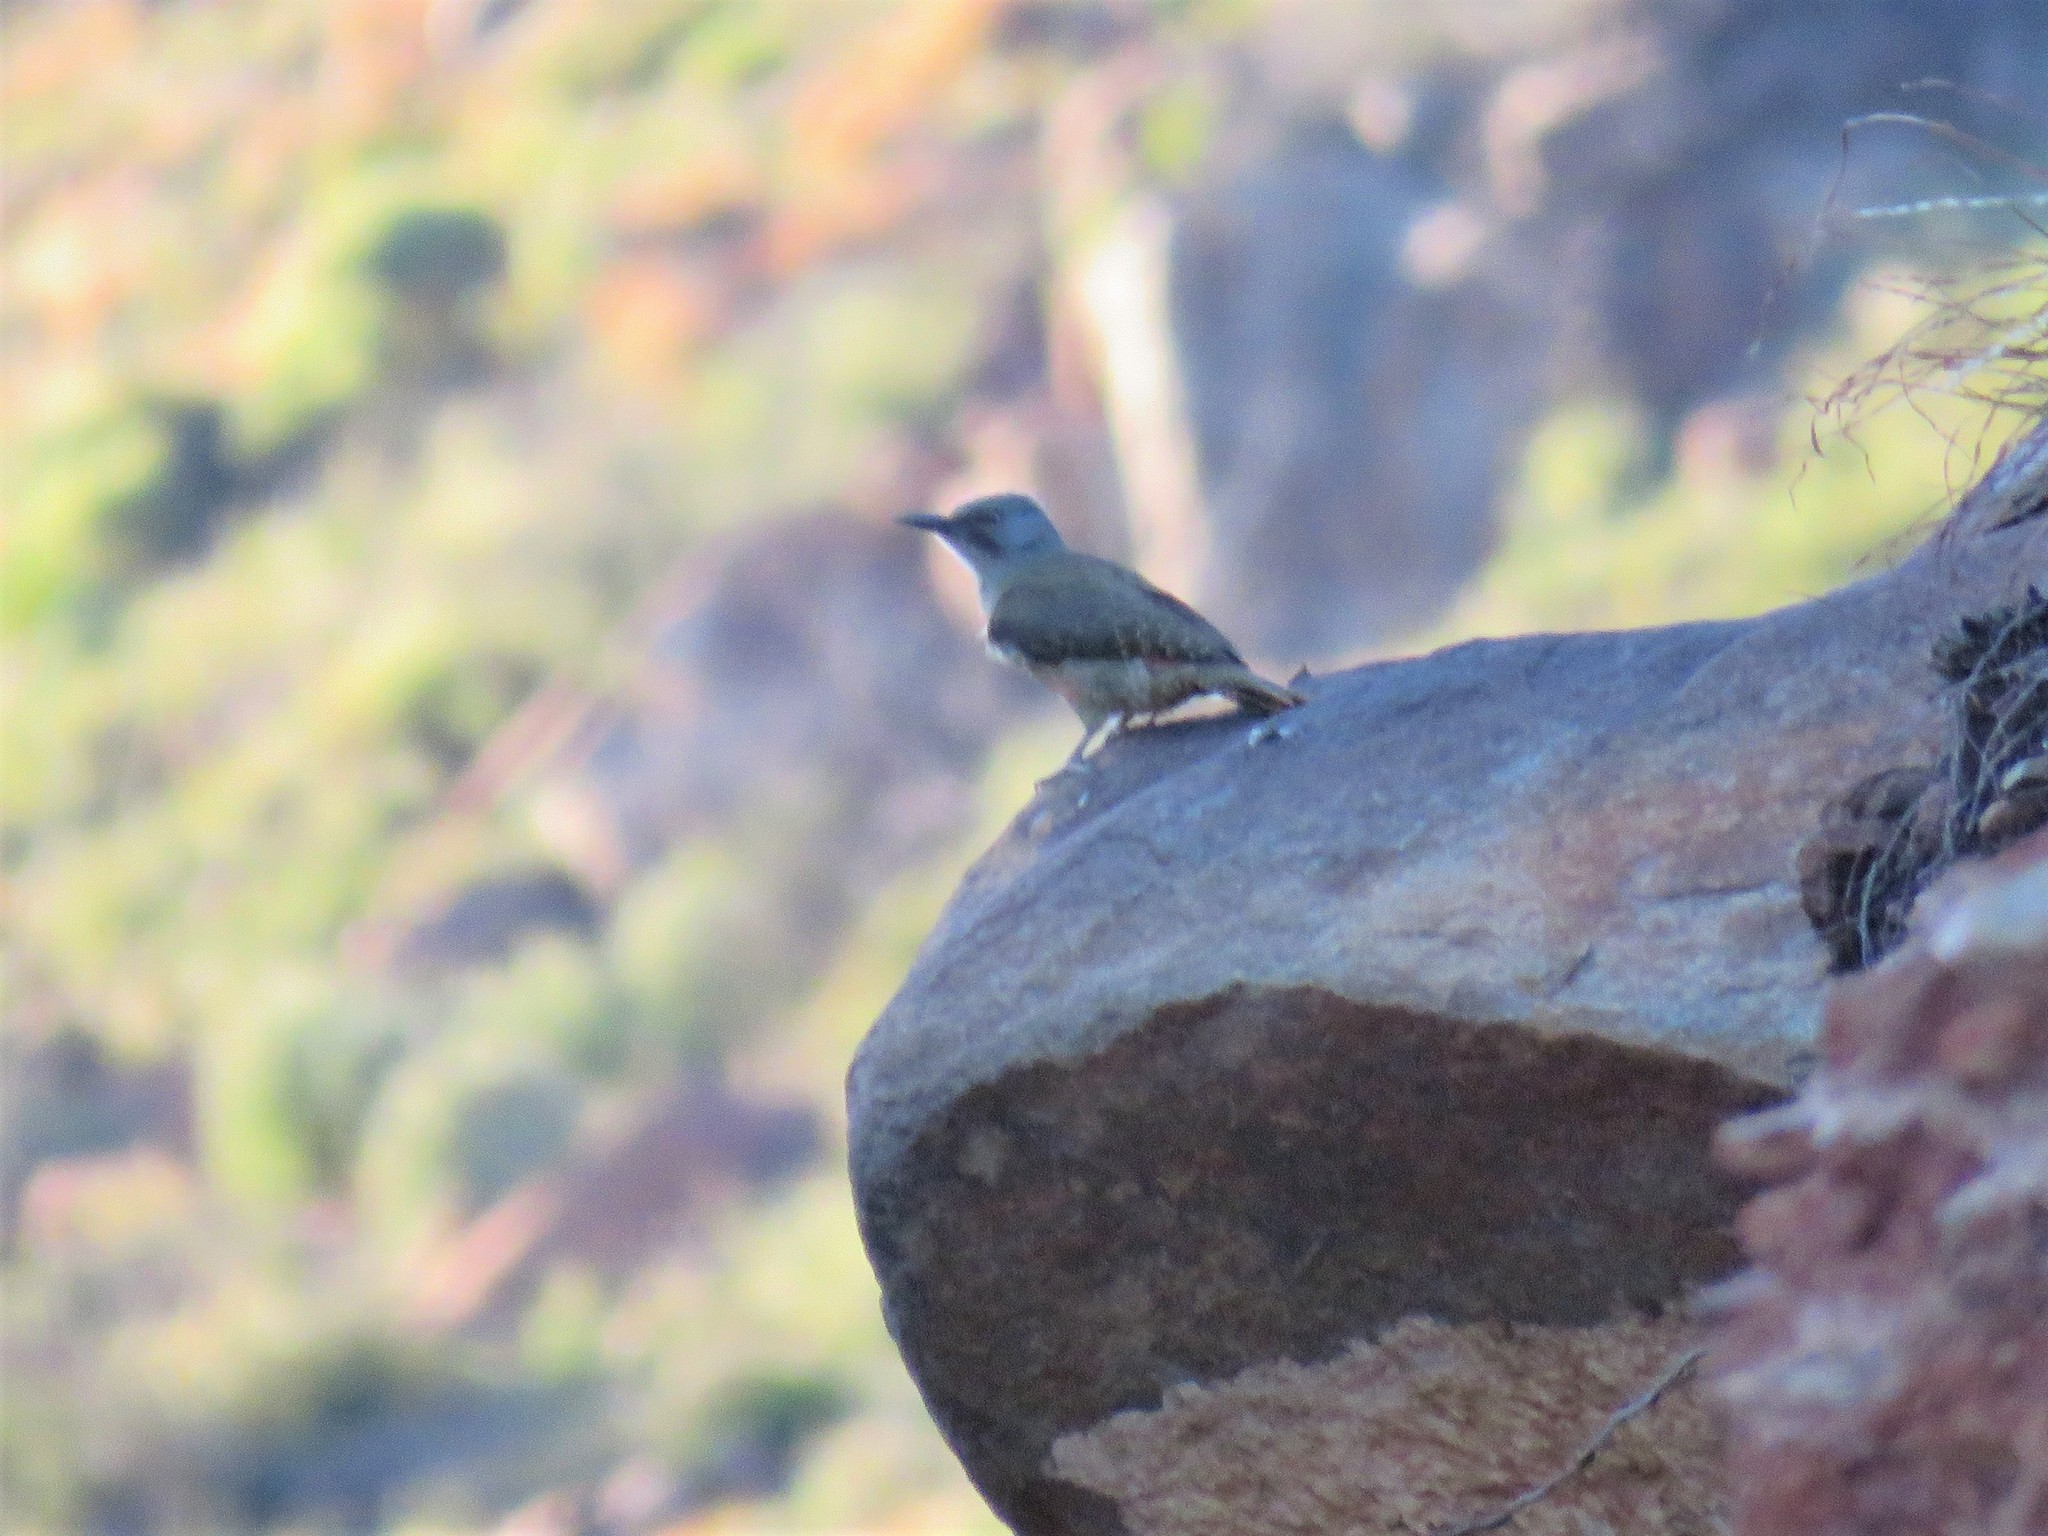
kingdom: Animalia
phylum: Chordata
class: Aves
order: Piciformes
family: Picidae
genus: Geocolaptes
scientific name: Geocolaptes olivaceus
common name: Ground woodpecker
